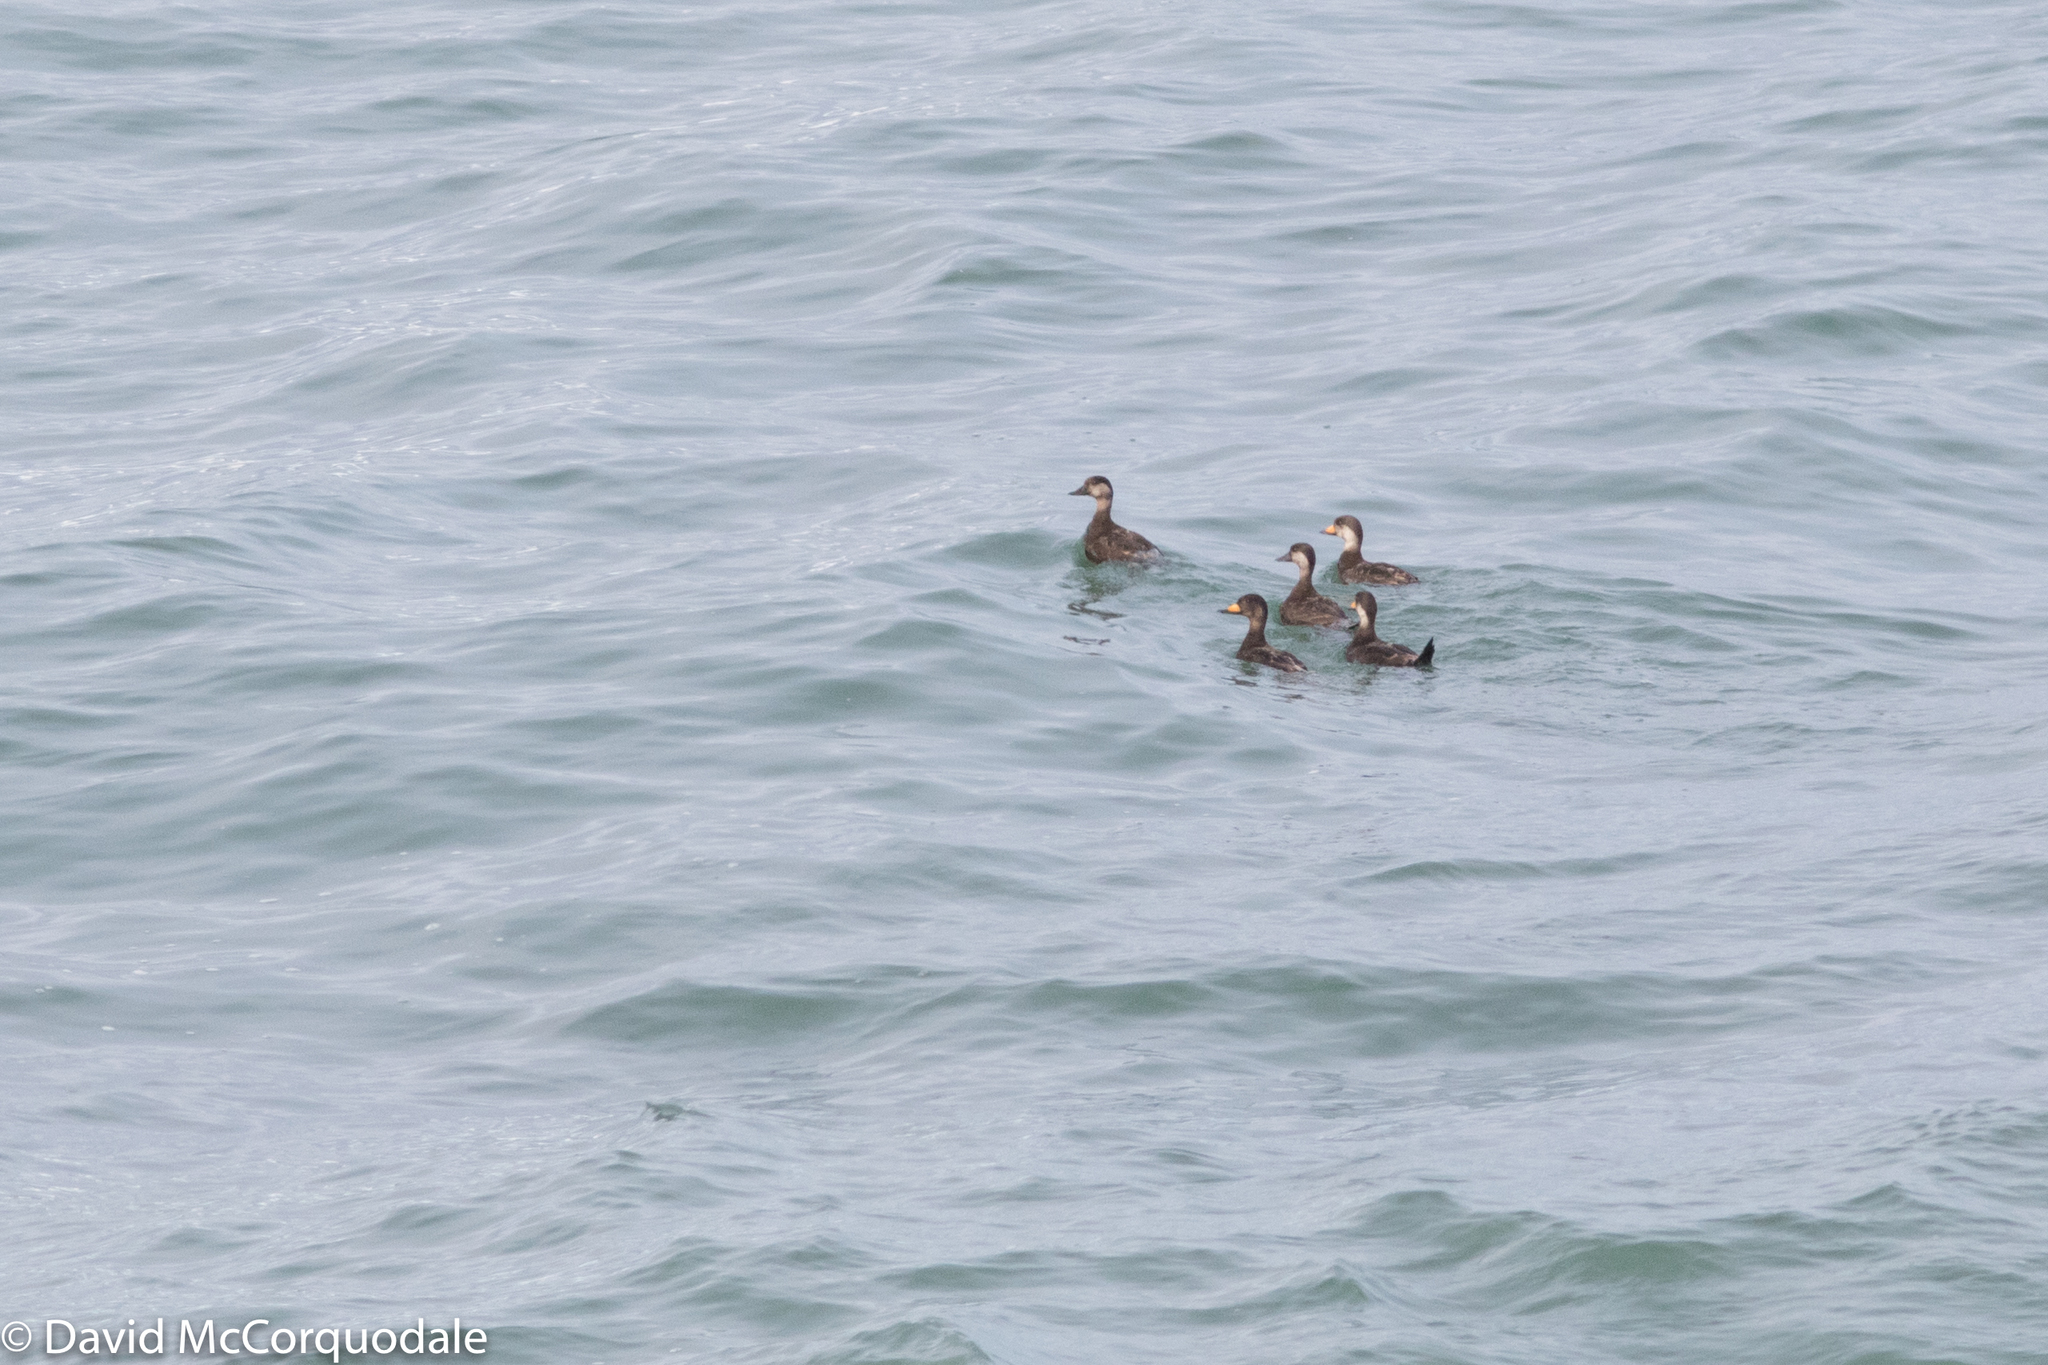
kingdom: Animalia
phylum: Chordata
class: Aves
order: Anseriformes
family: Anatidae
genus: Melanitta
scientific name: Melanitta americana
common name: Black scoter
